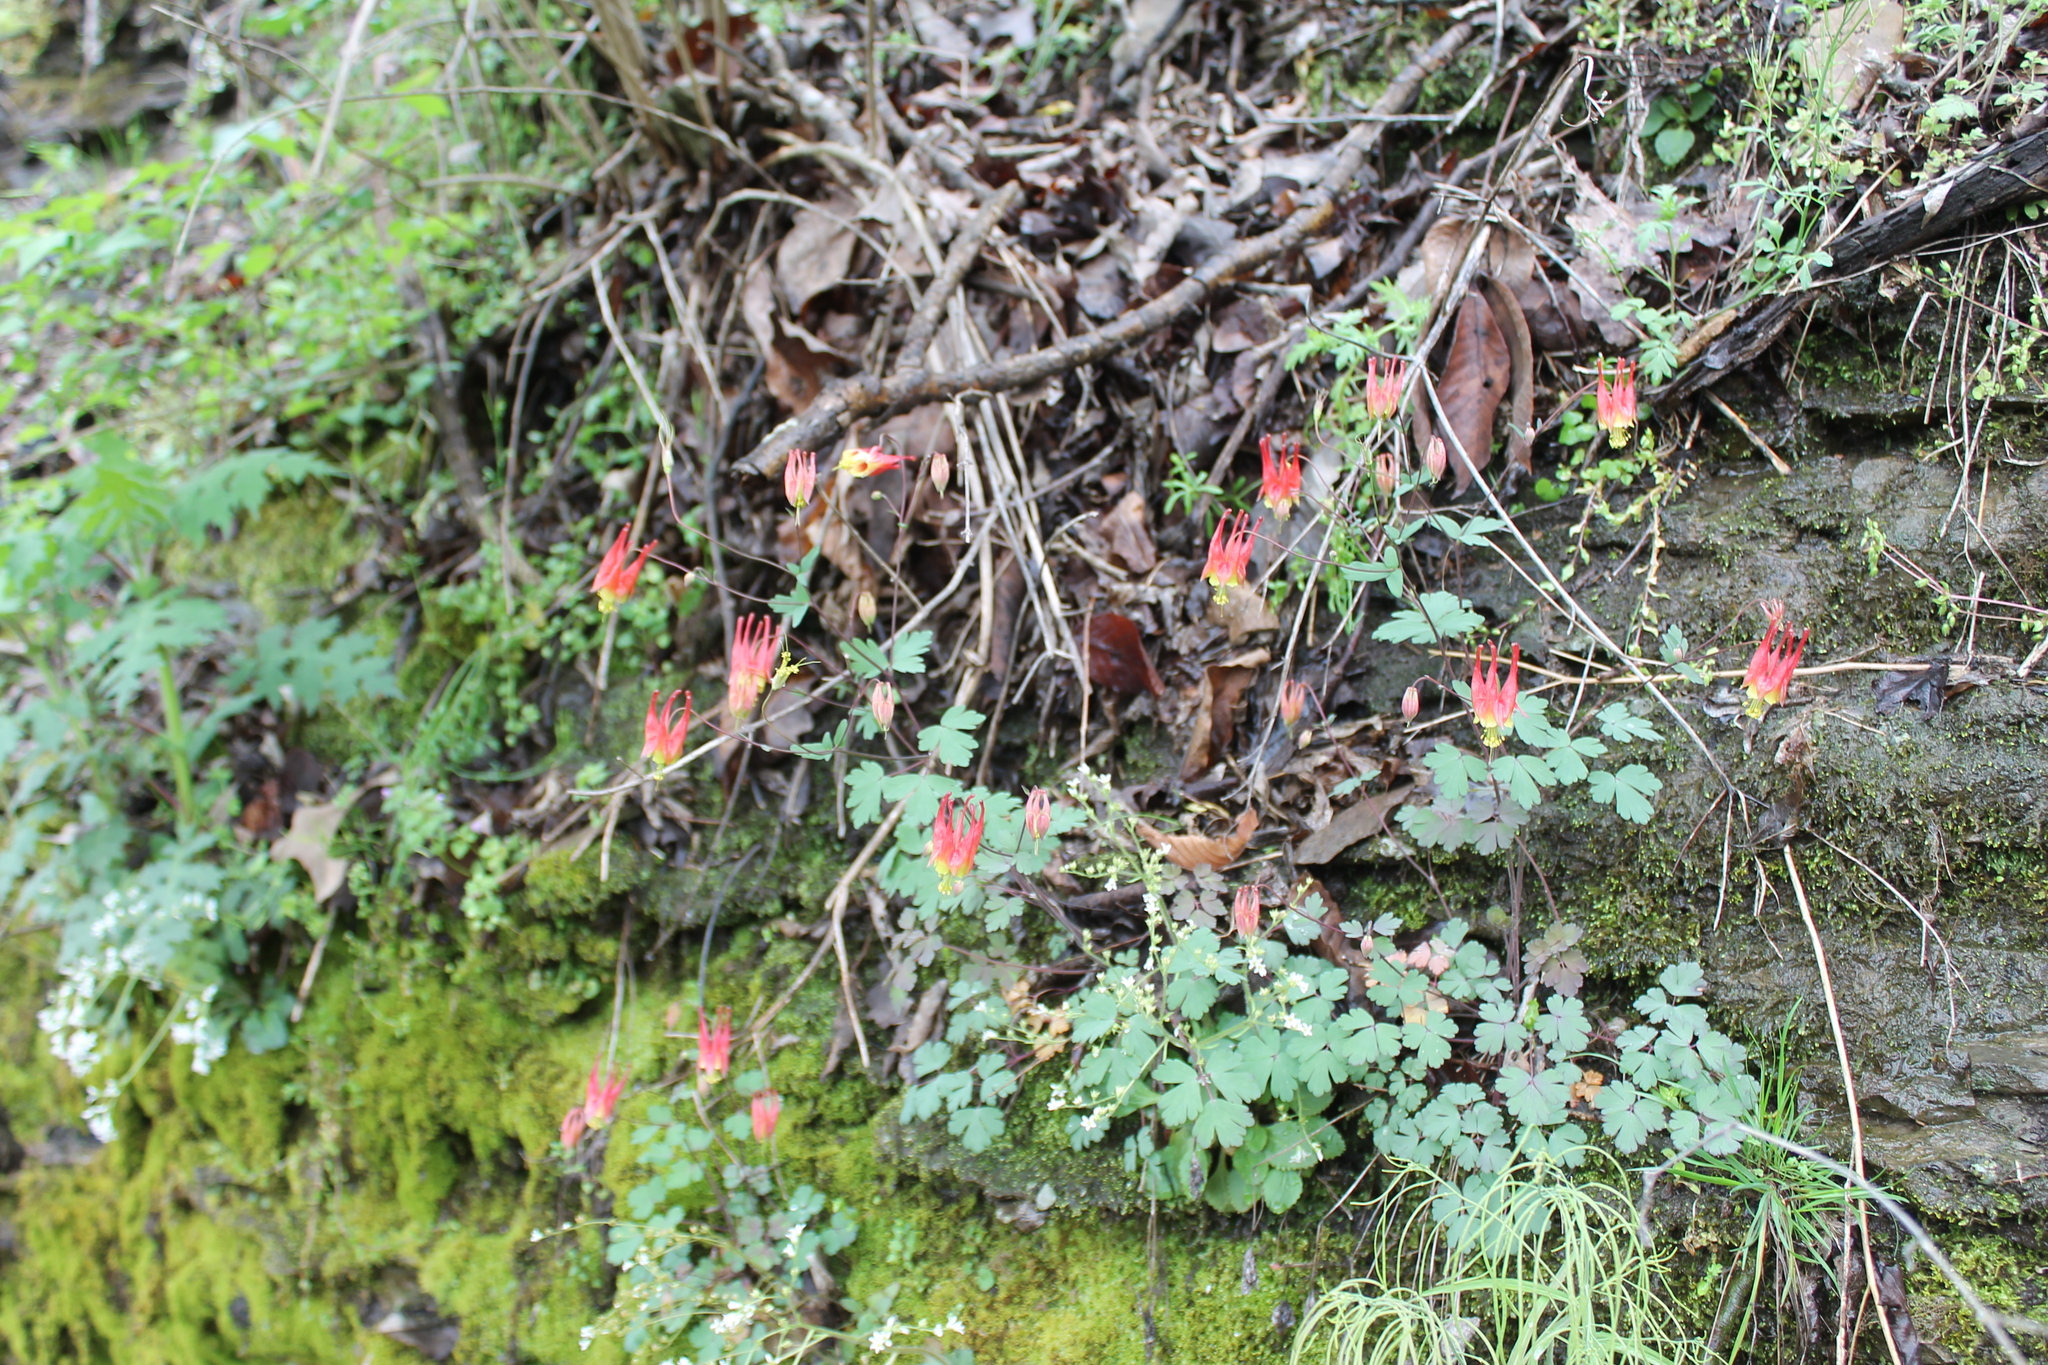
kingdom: Plantae
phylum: Tracheophyta
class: Magnoliopsida
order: Ranunculales
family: Ranunculaceae
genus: Aquilegia
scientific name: Aquilegia canadensis
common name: American columbine
